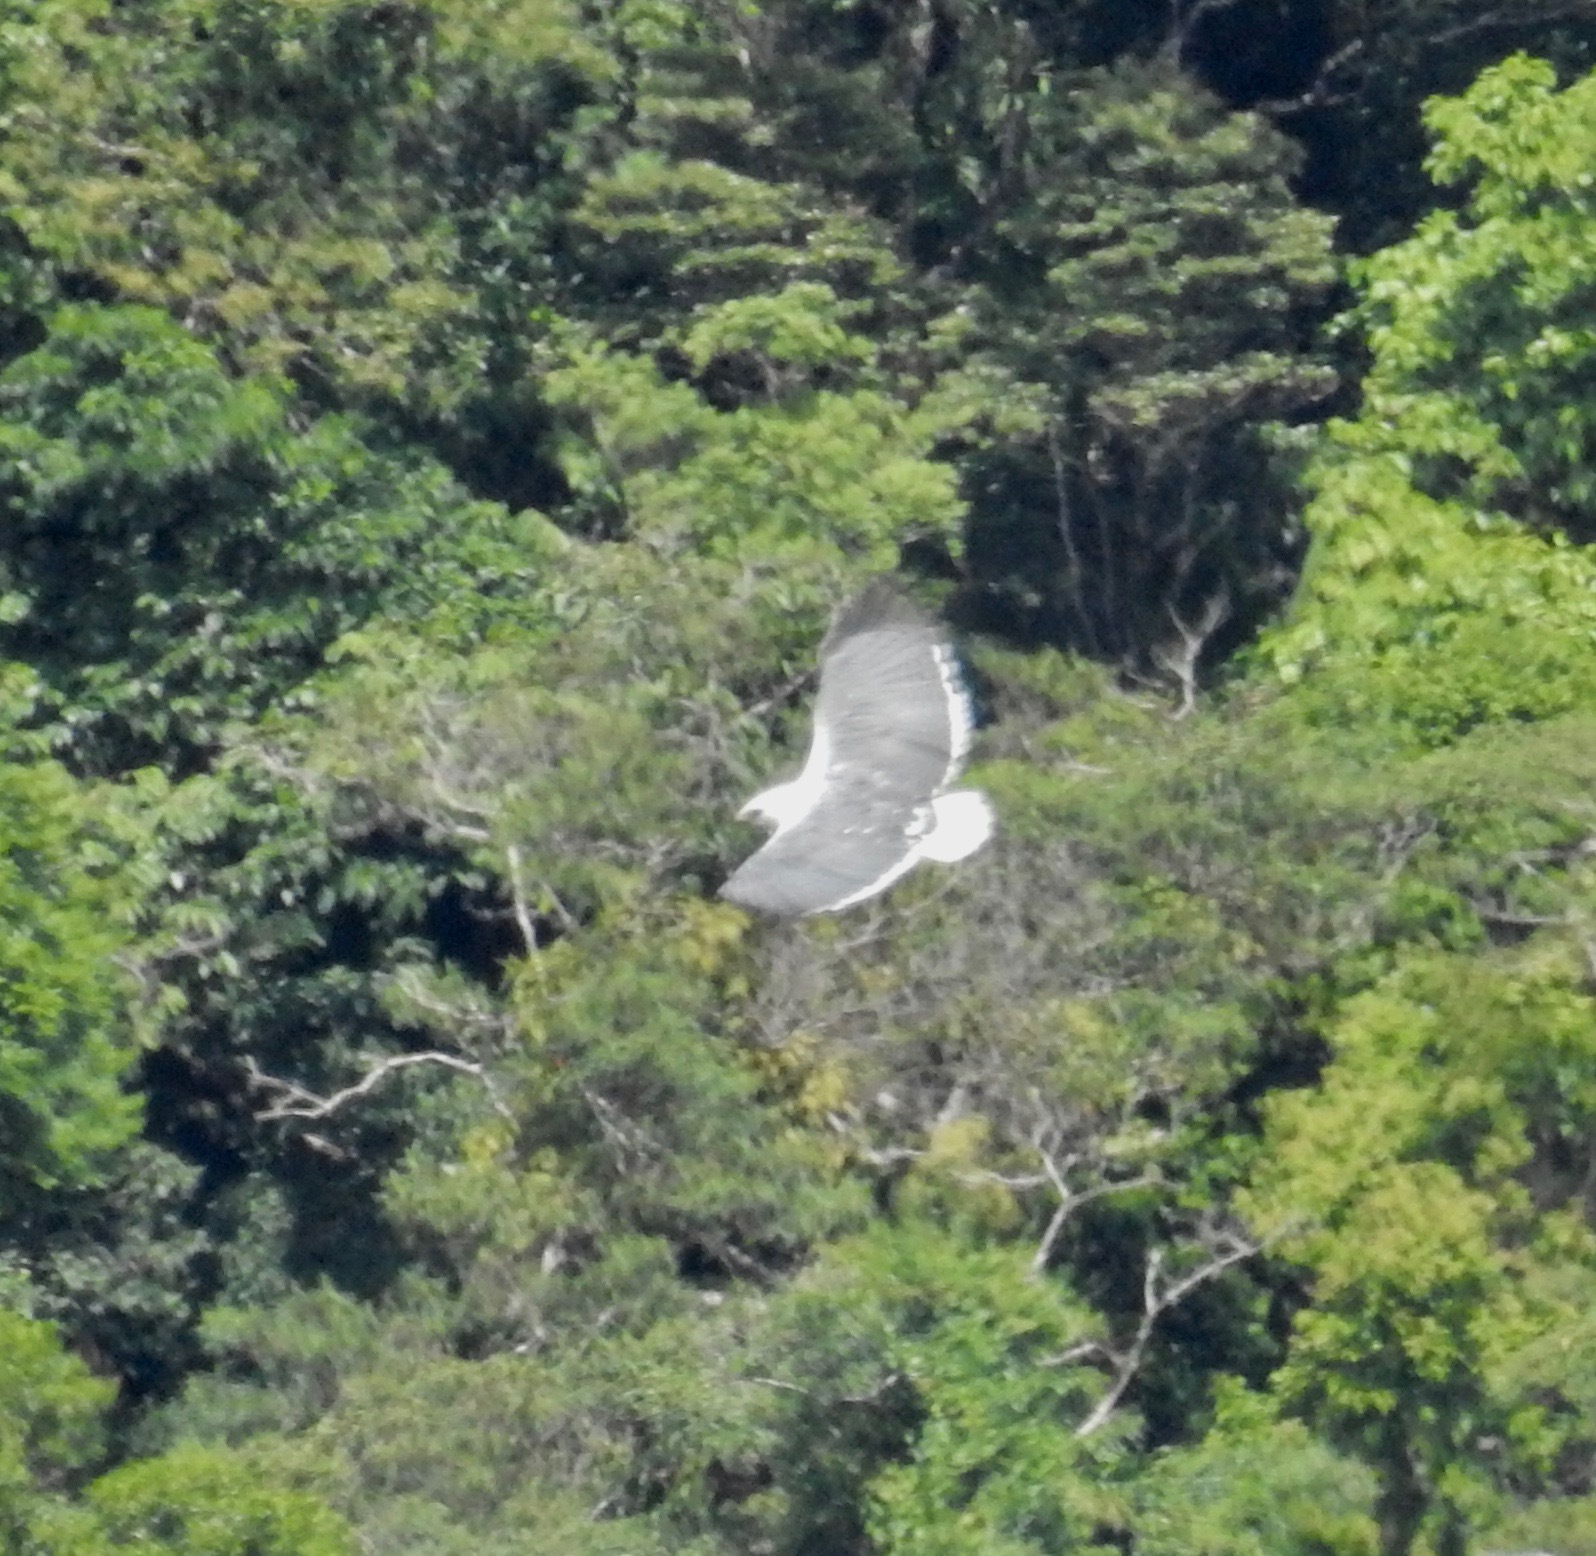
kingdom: Animalia
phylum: Chordata
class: Aves
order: Accipitriformes
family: Accipitridae
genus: Leucopternis
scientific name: Leucopternis polionotus
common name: Mantled hawk
